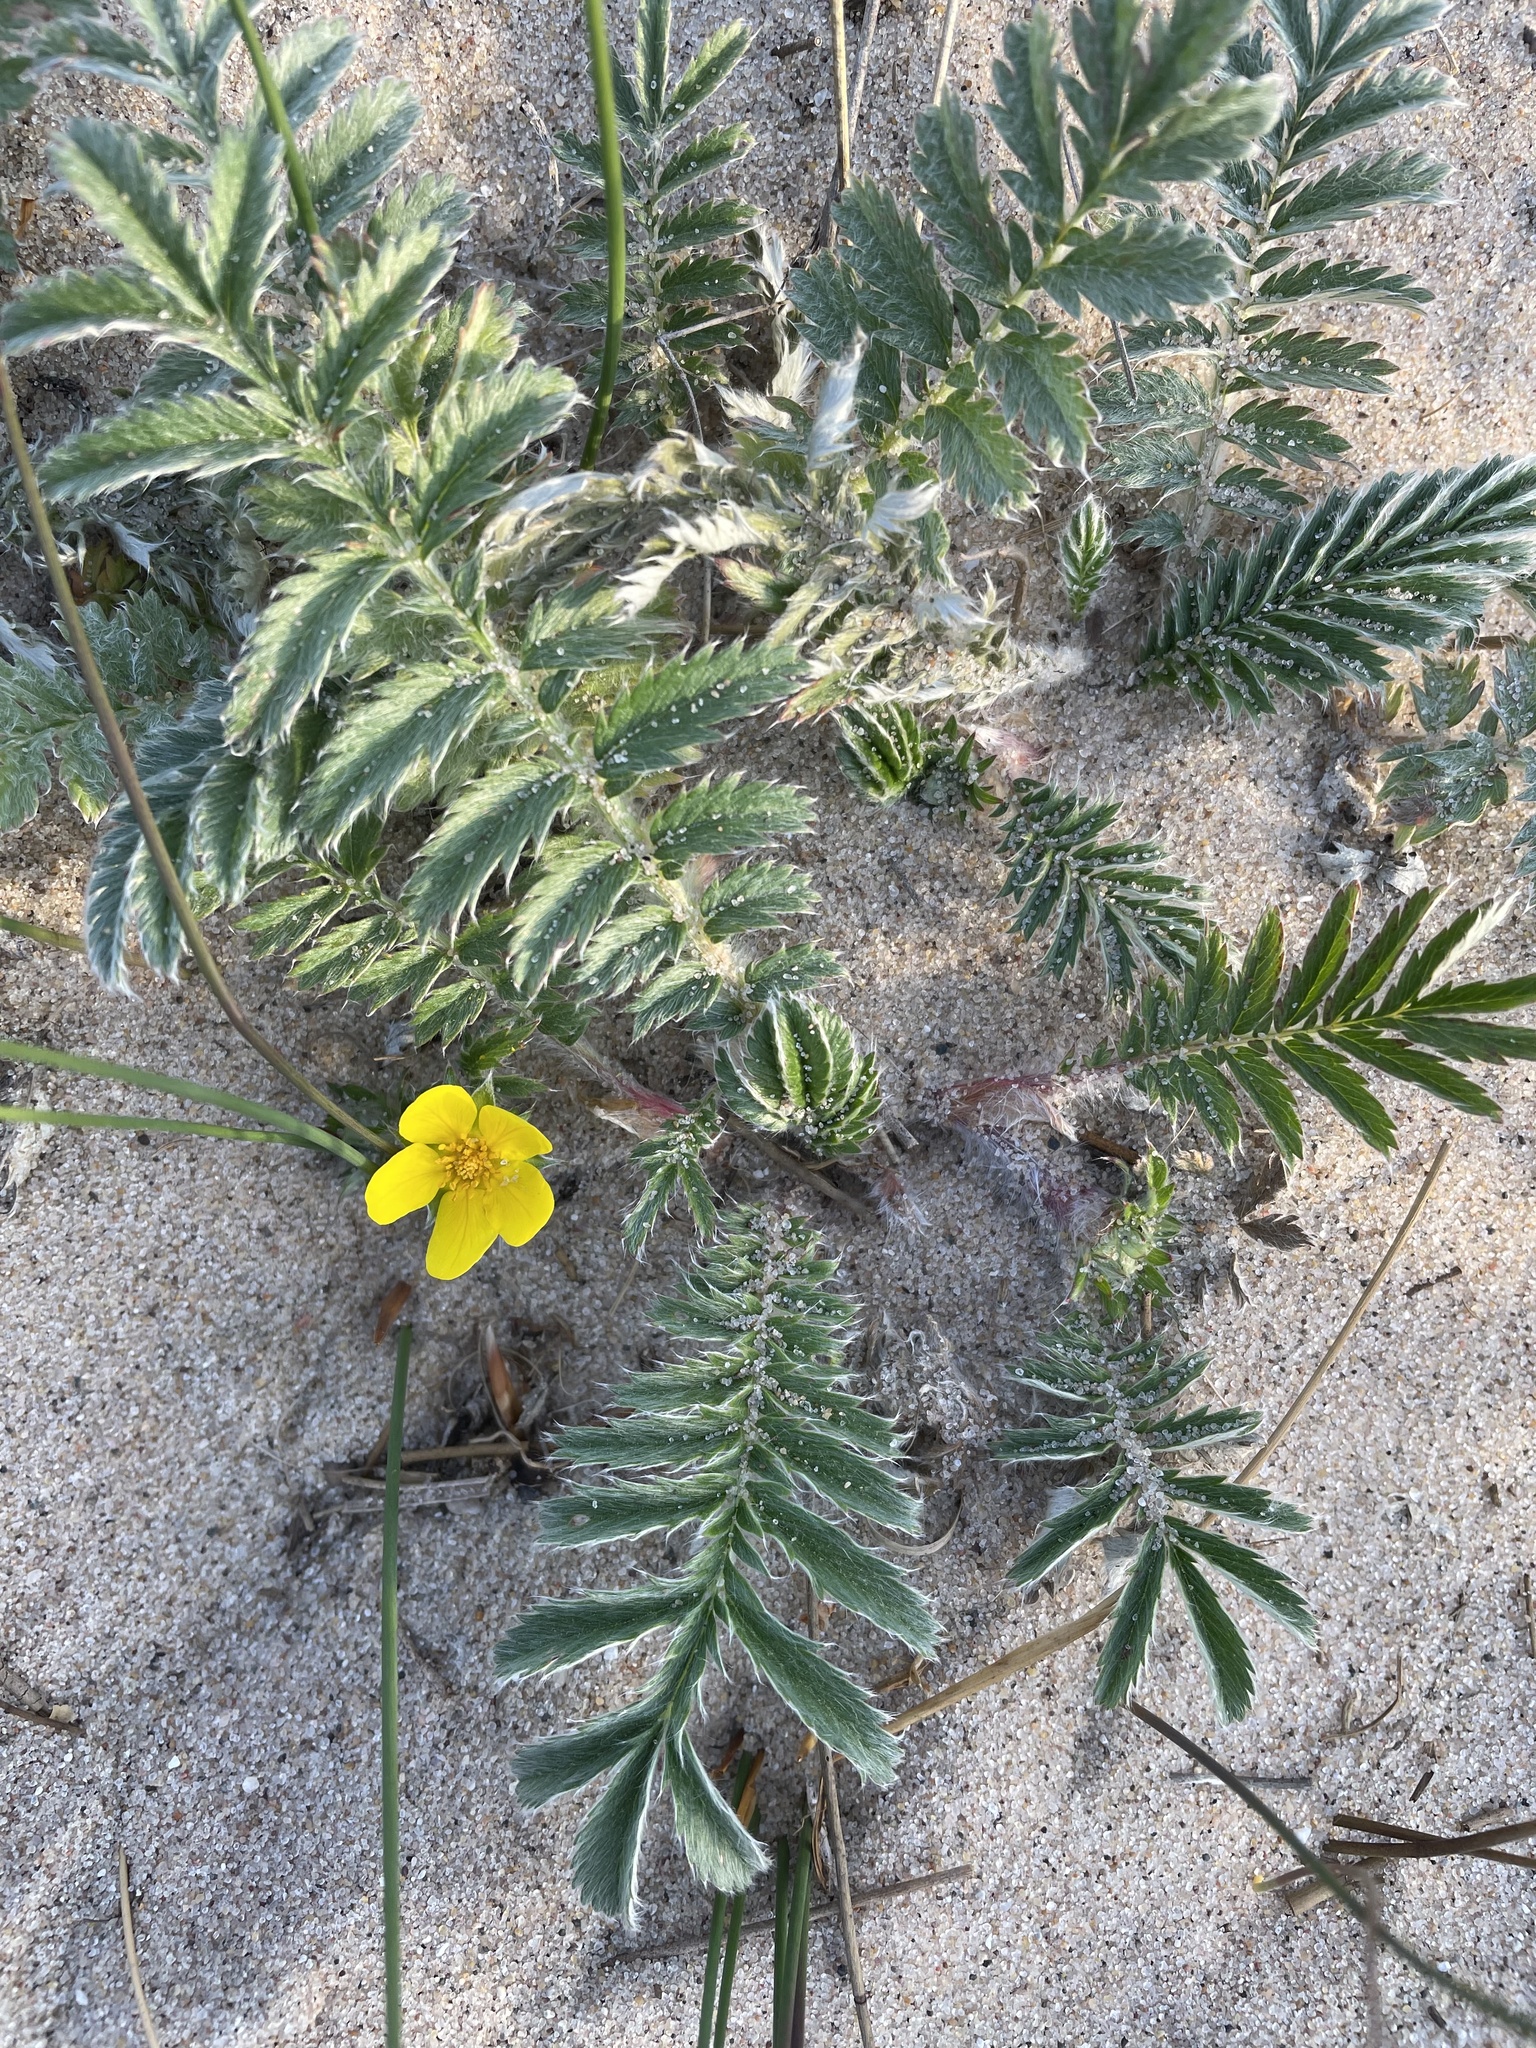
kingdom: Plantae
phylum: Tracheophyta
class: Magnoliopsida
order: Rosales
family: Rosaceae
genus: Argentina
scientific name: Argentina anserina
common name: Common silverweed
